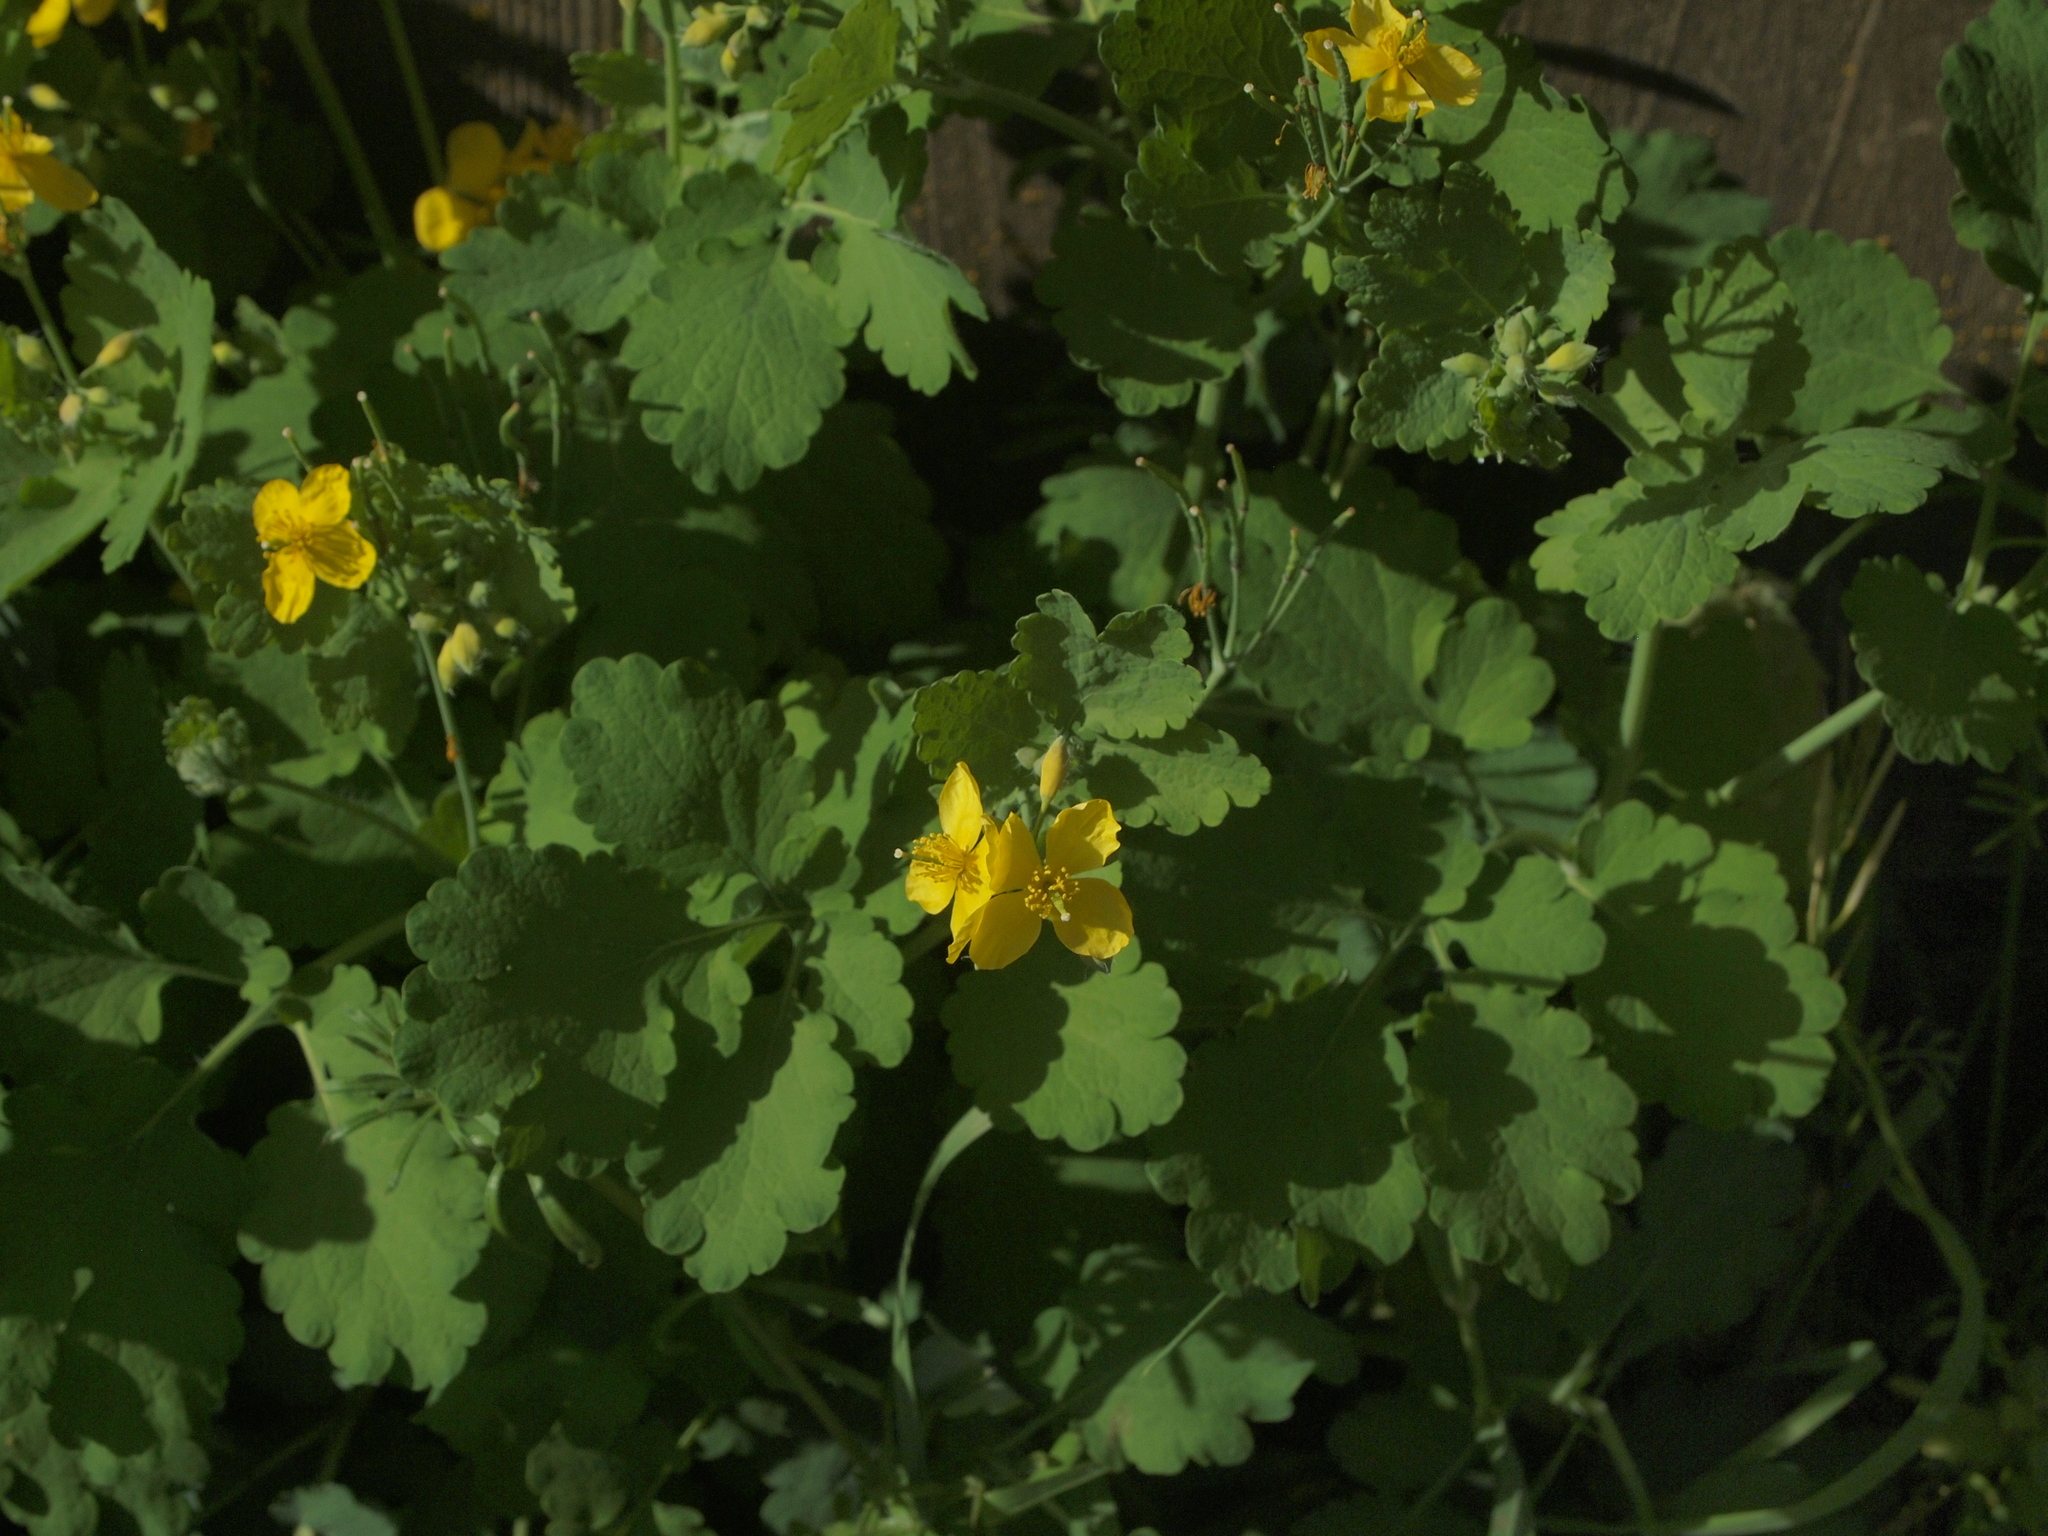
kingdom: Plantae
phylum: Tracheophyta
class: Magnoliopsida
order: Ranunculales
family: Papaveraceae
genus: Chelidonium
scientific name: Chelidonium majus
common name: Greater celandine
